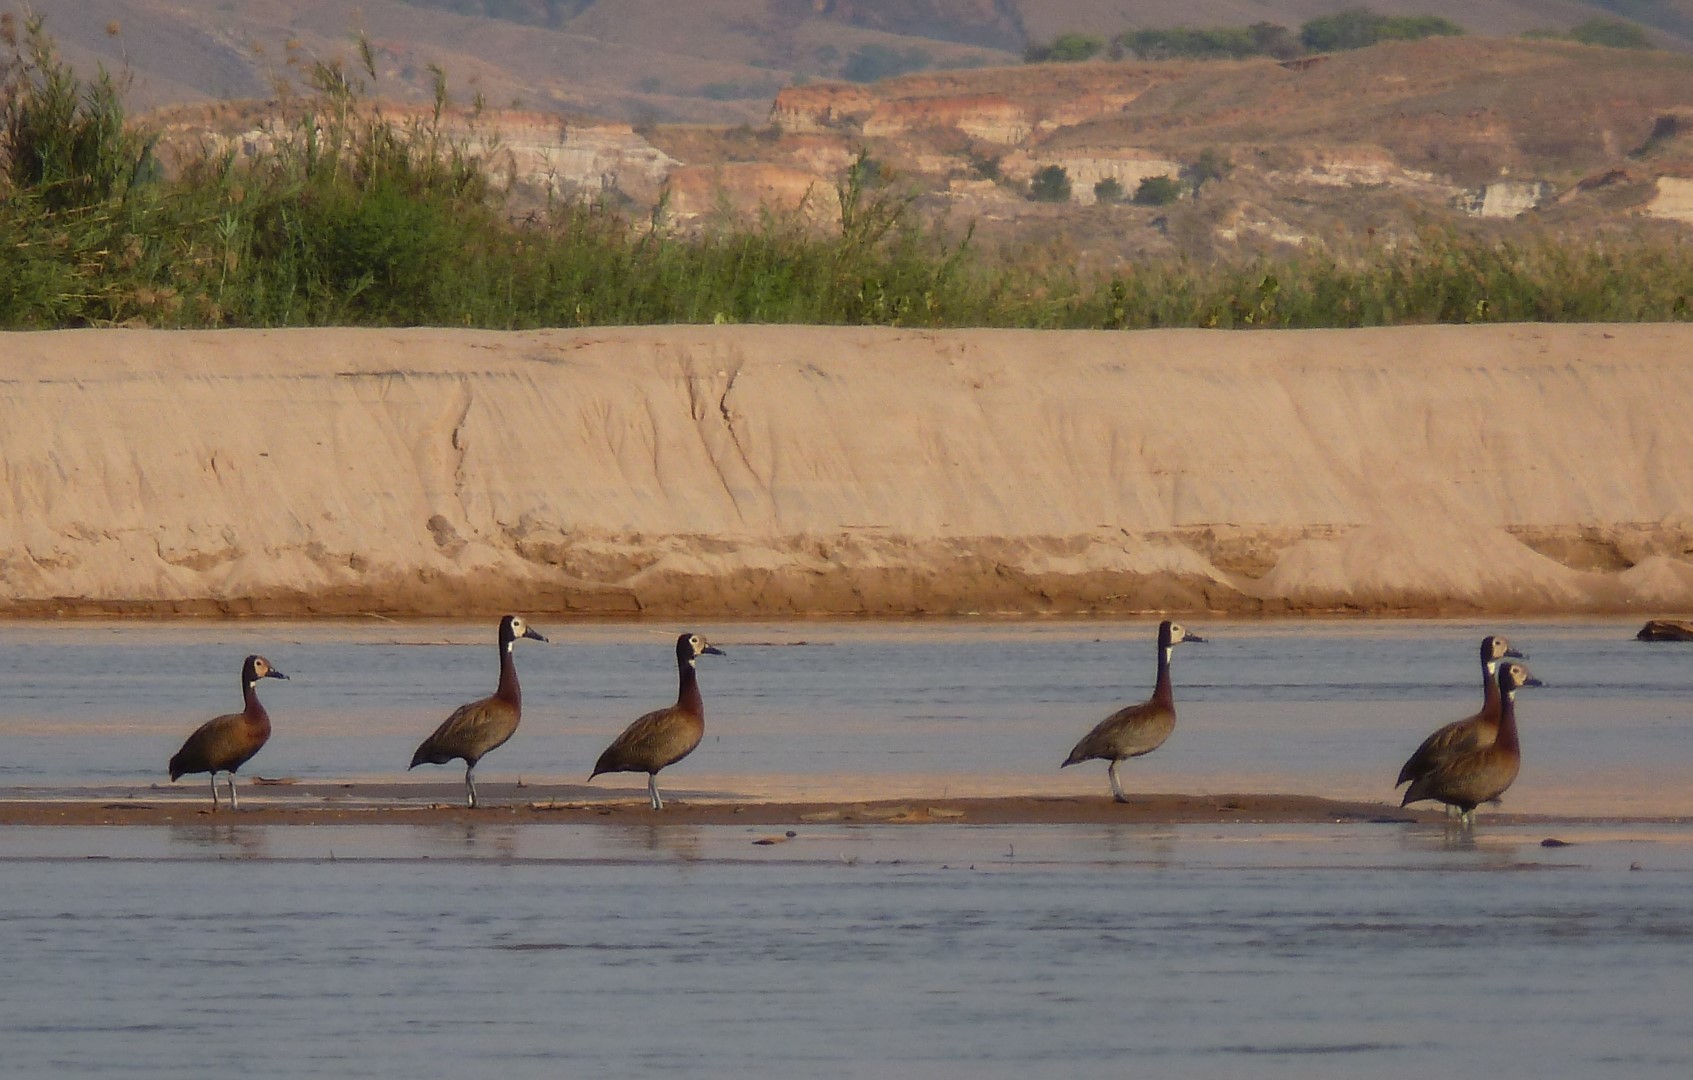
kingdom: Animalia
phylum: Chordata
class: Aves
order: Anseriformes
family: Anatidae
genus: Dendrocygna
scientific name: Dendrocygna viduata
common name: White-faced whistling duck
